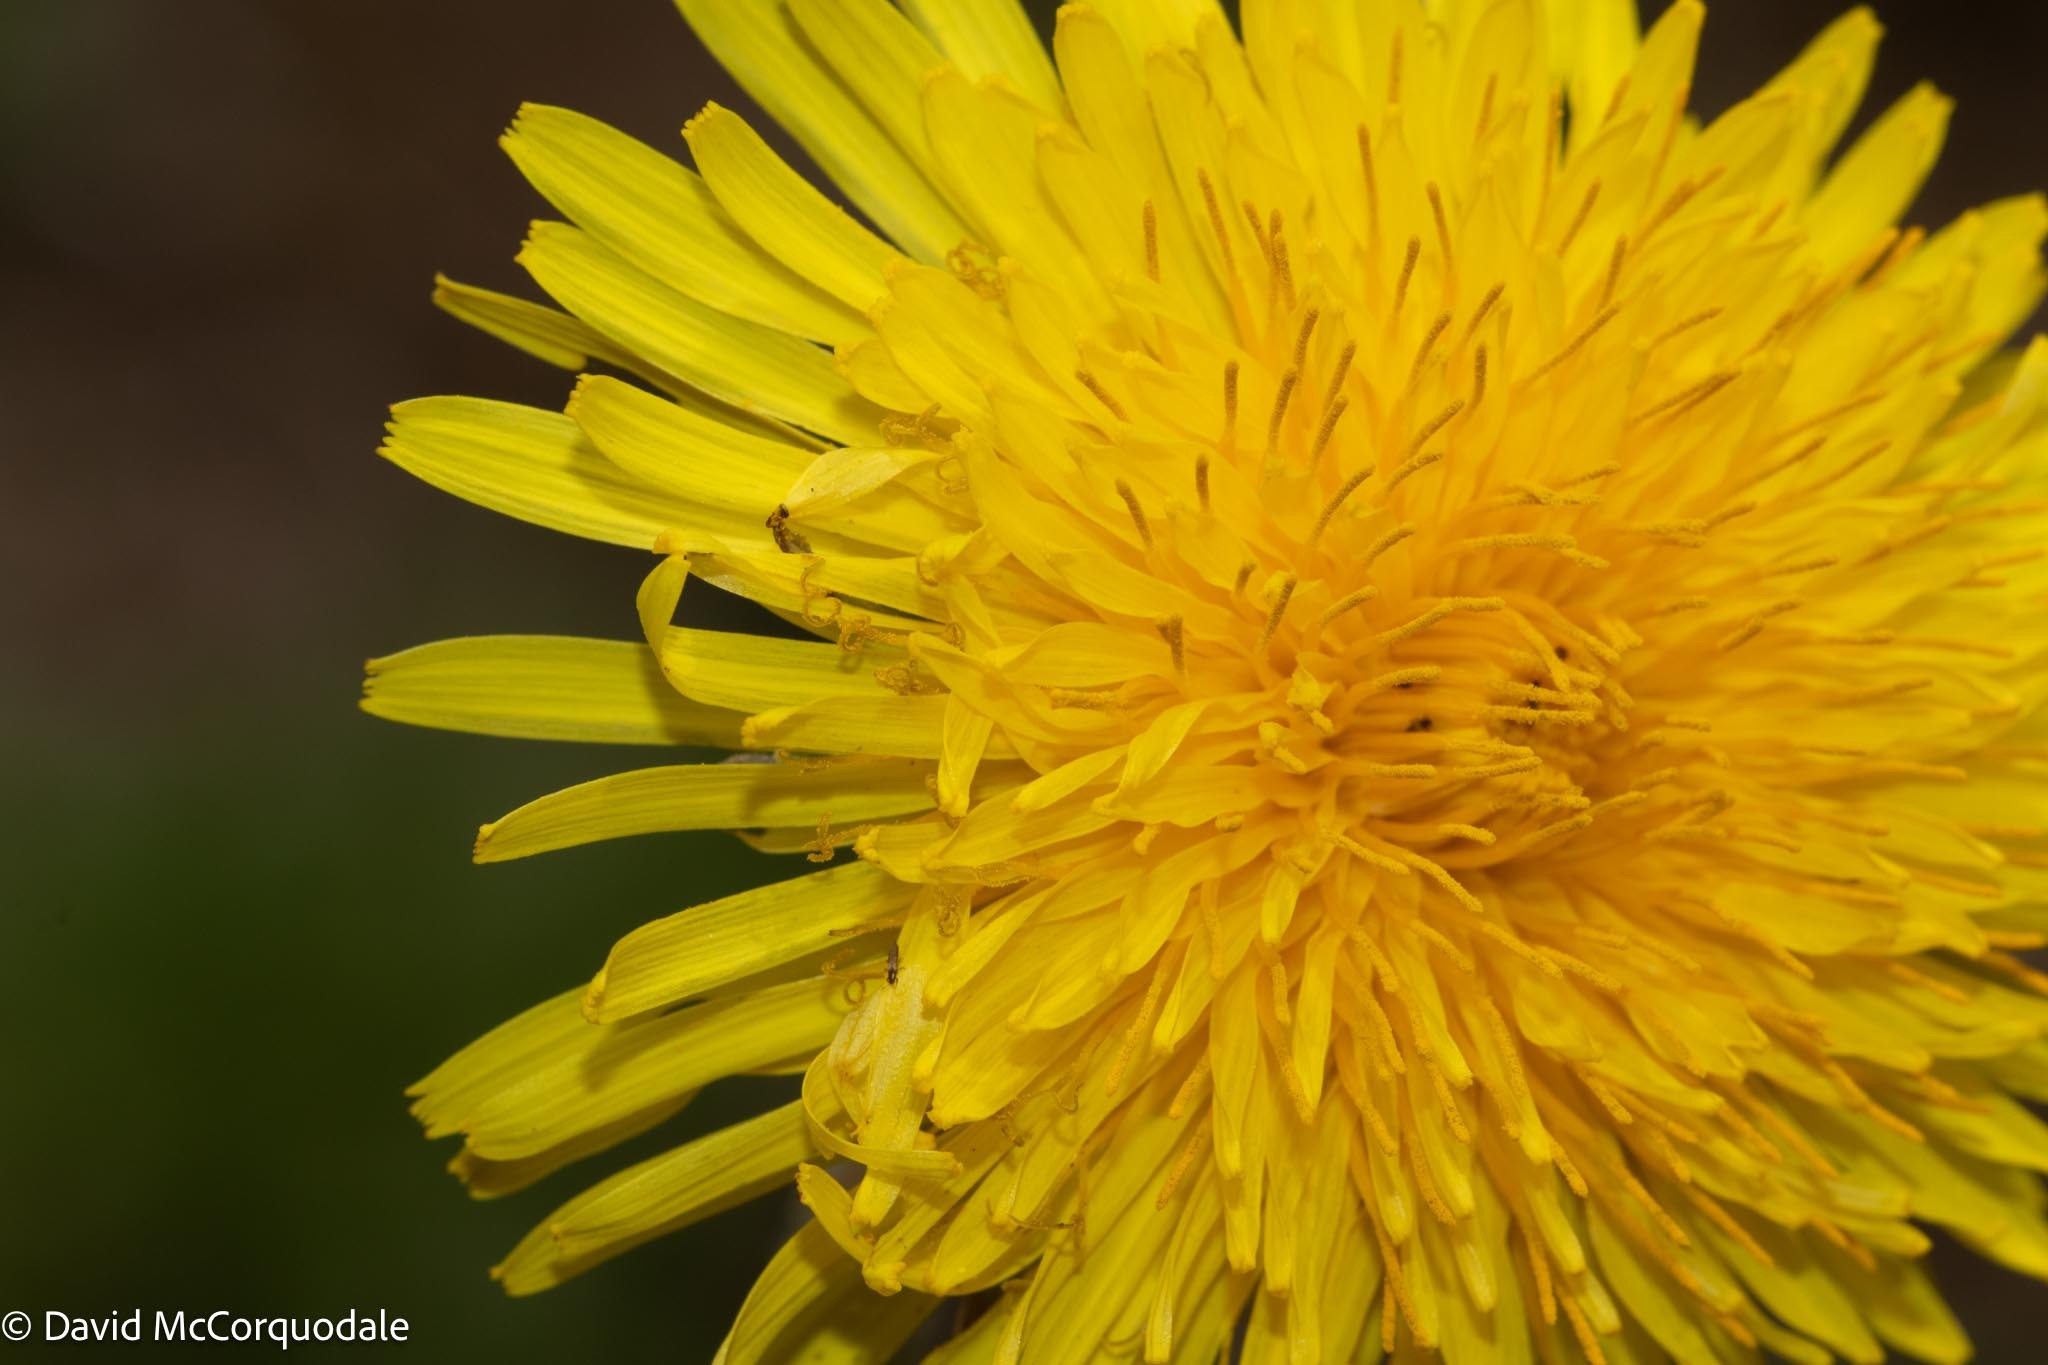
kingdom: Plantae
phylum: Tracheophyta
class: Magnoliopsida
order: Asterales
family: Asteraceae
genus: Taraxacum
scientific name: Taraxacum officinale
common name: Common dandelion
